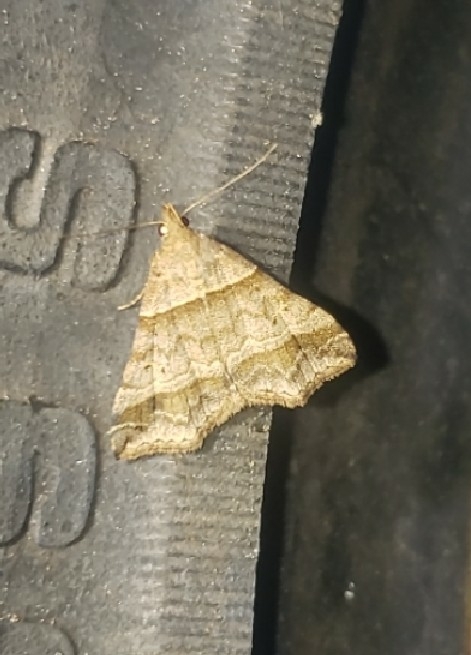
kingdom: Animalia
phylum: Arthropoda
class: Insecta
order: Lepidoptera
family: Erebidae
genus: Phaeolita
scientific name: Phaeolita pyramusalis
